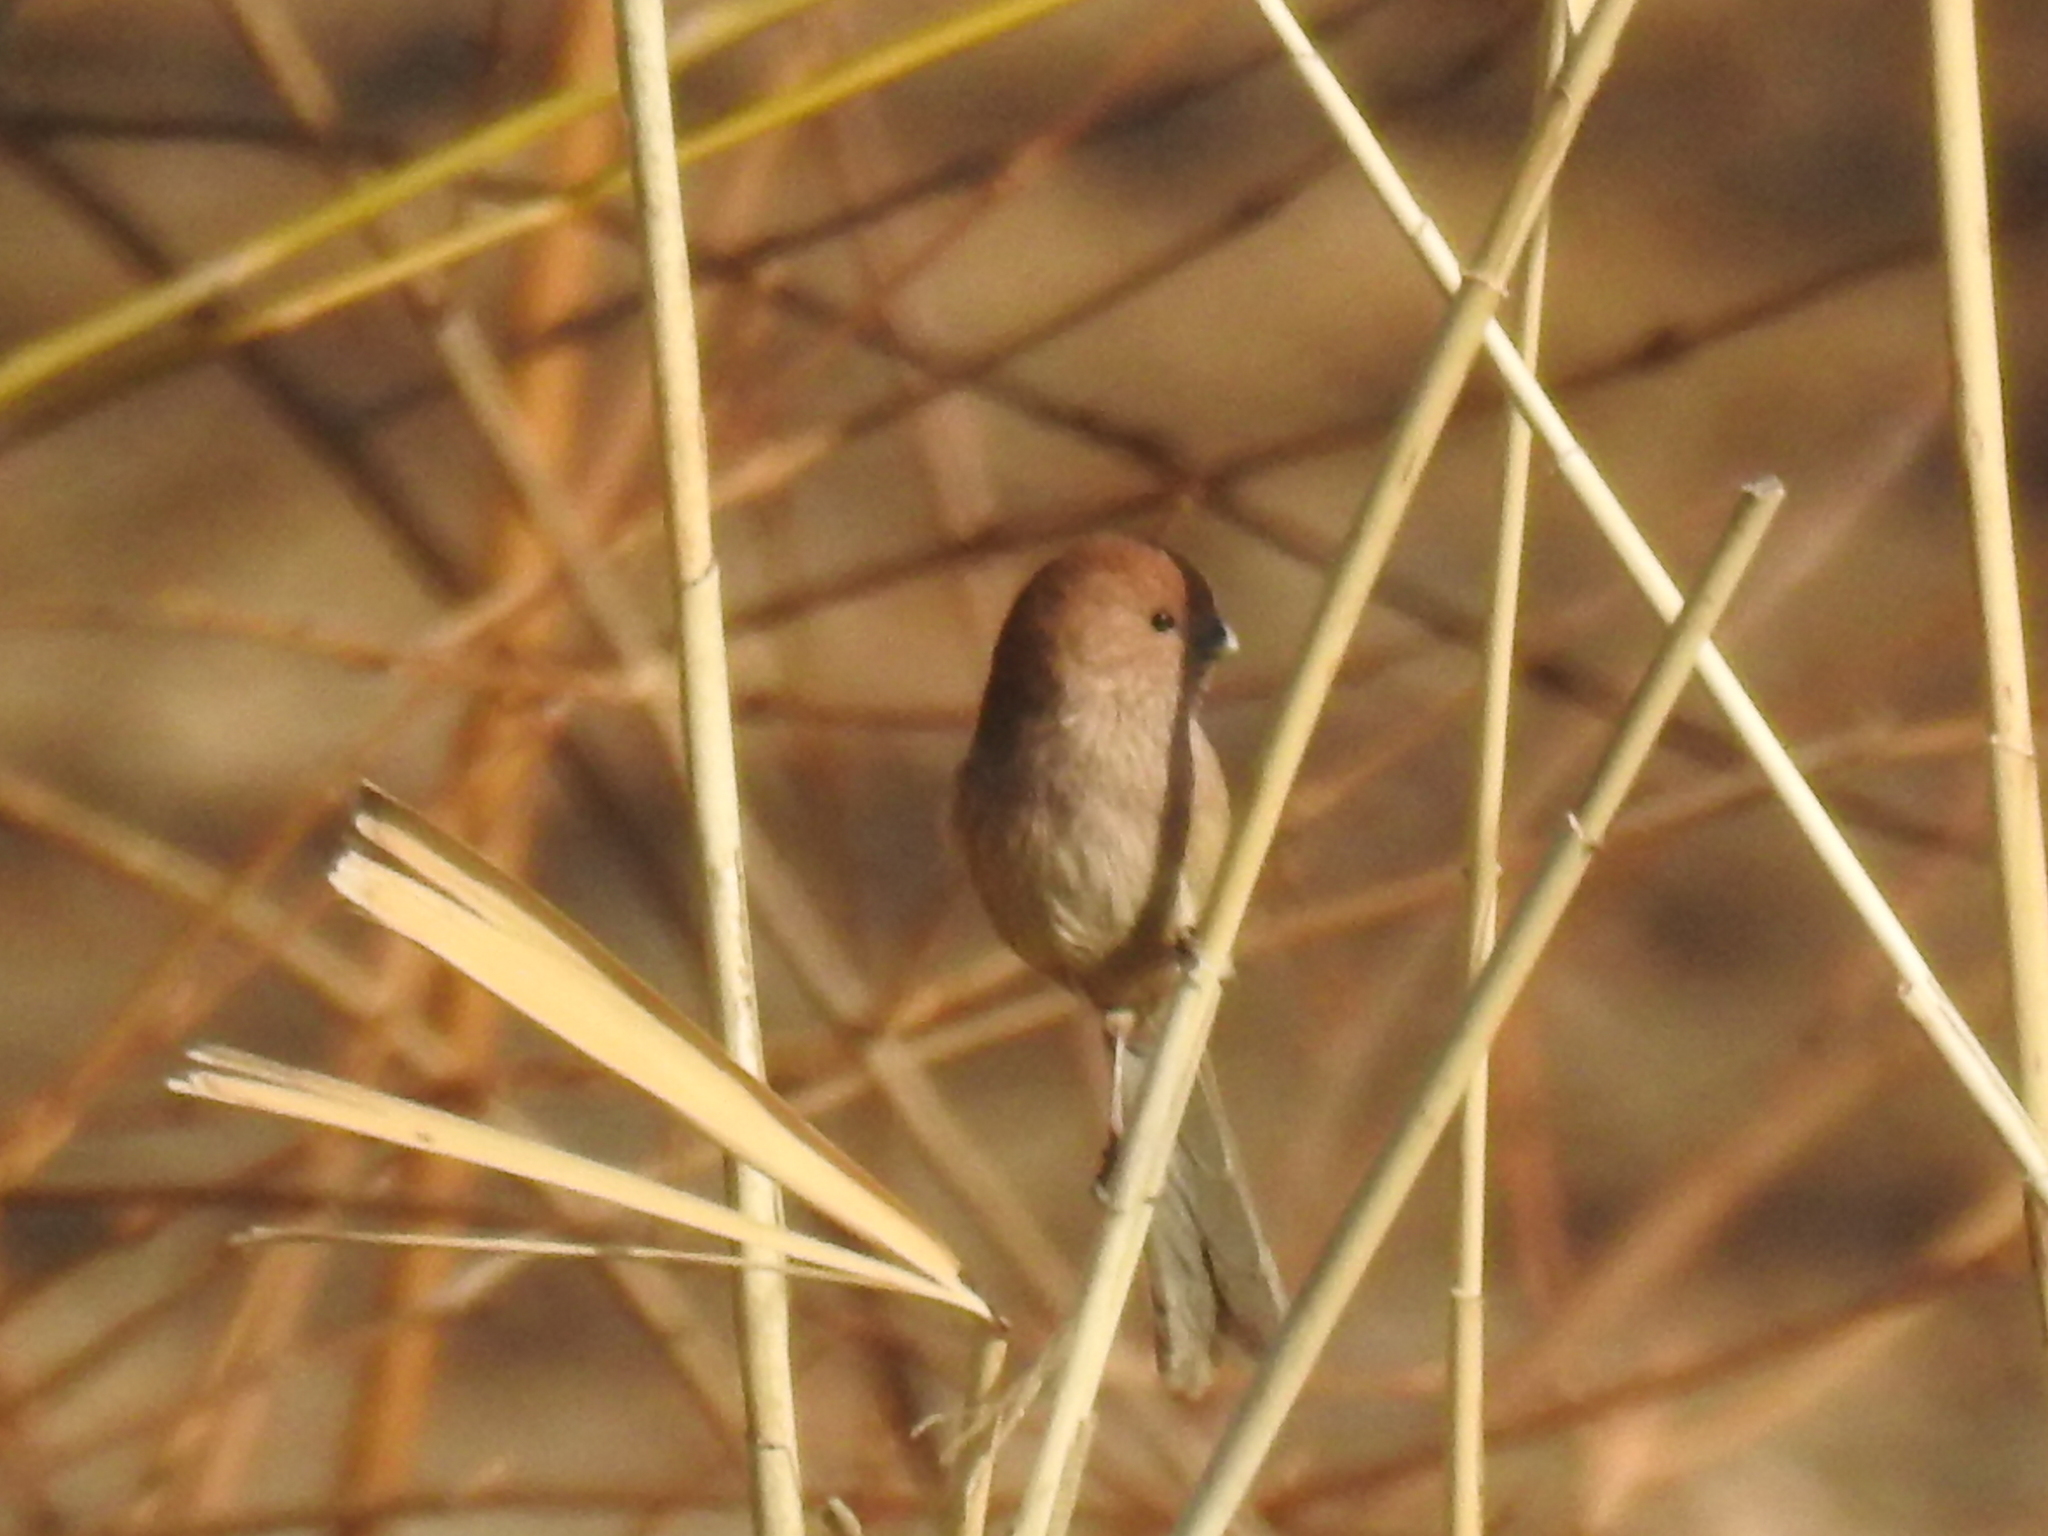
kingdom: Animalia
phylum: Chordata
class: Aves
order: Passeriformes
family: Sylviidae
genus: Sinosuthora
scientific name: Sinosuthora webbiana
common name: Vinous-throated parrotbill
